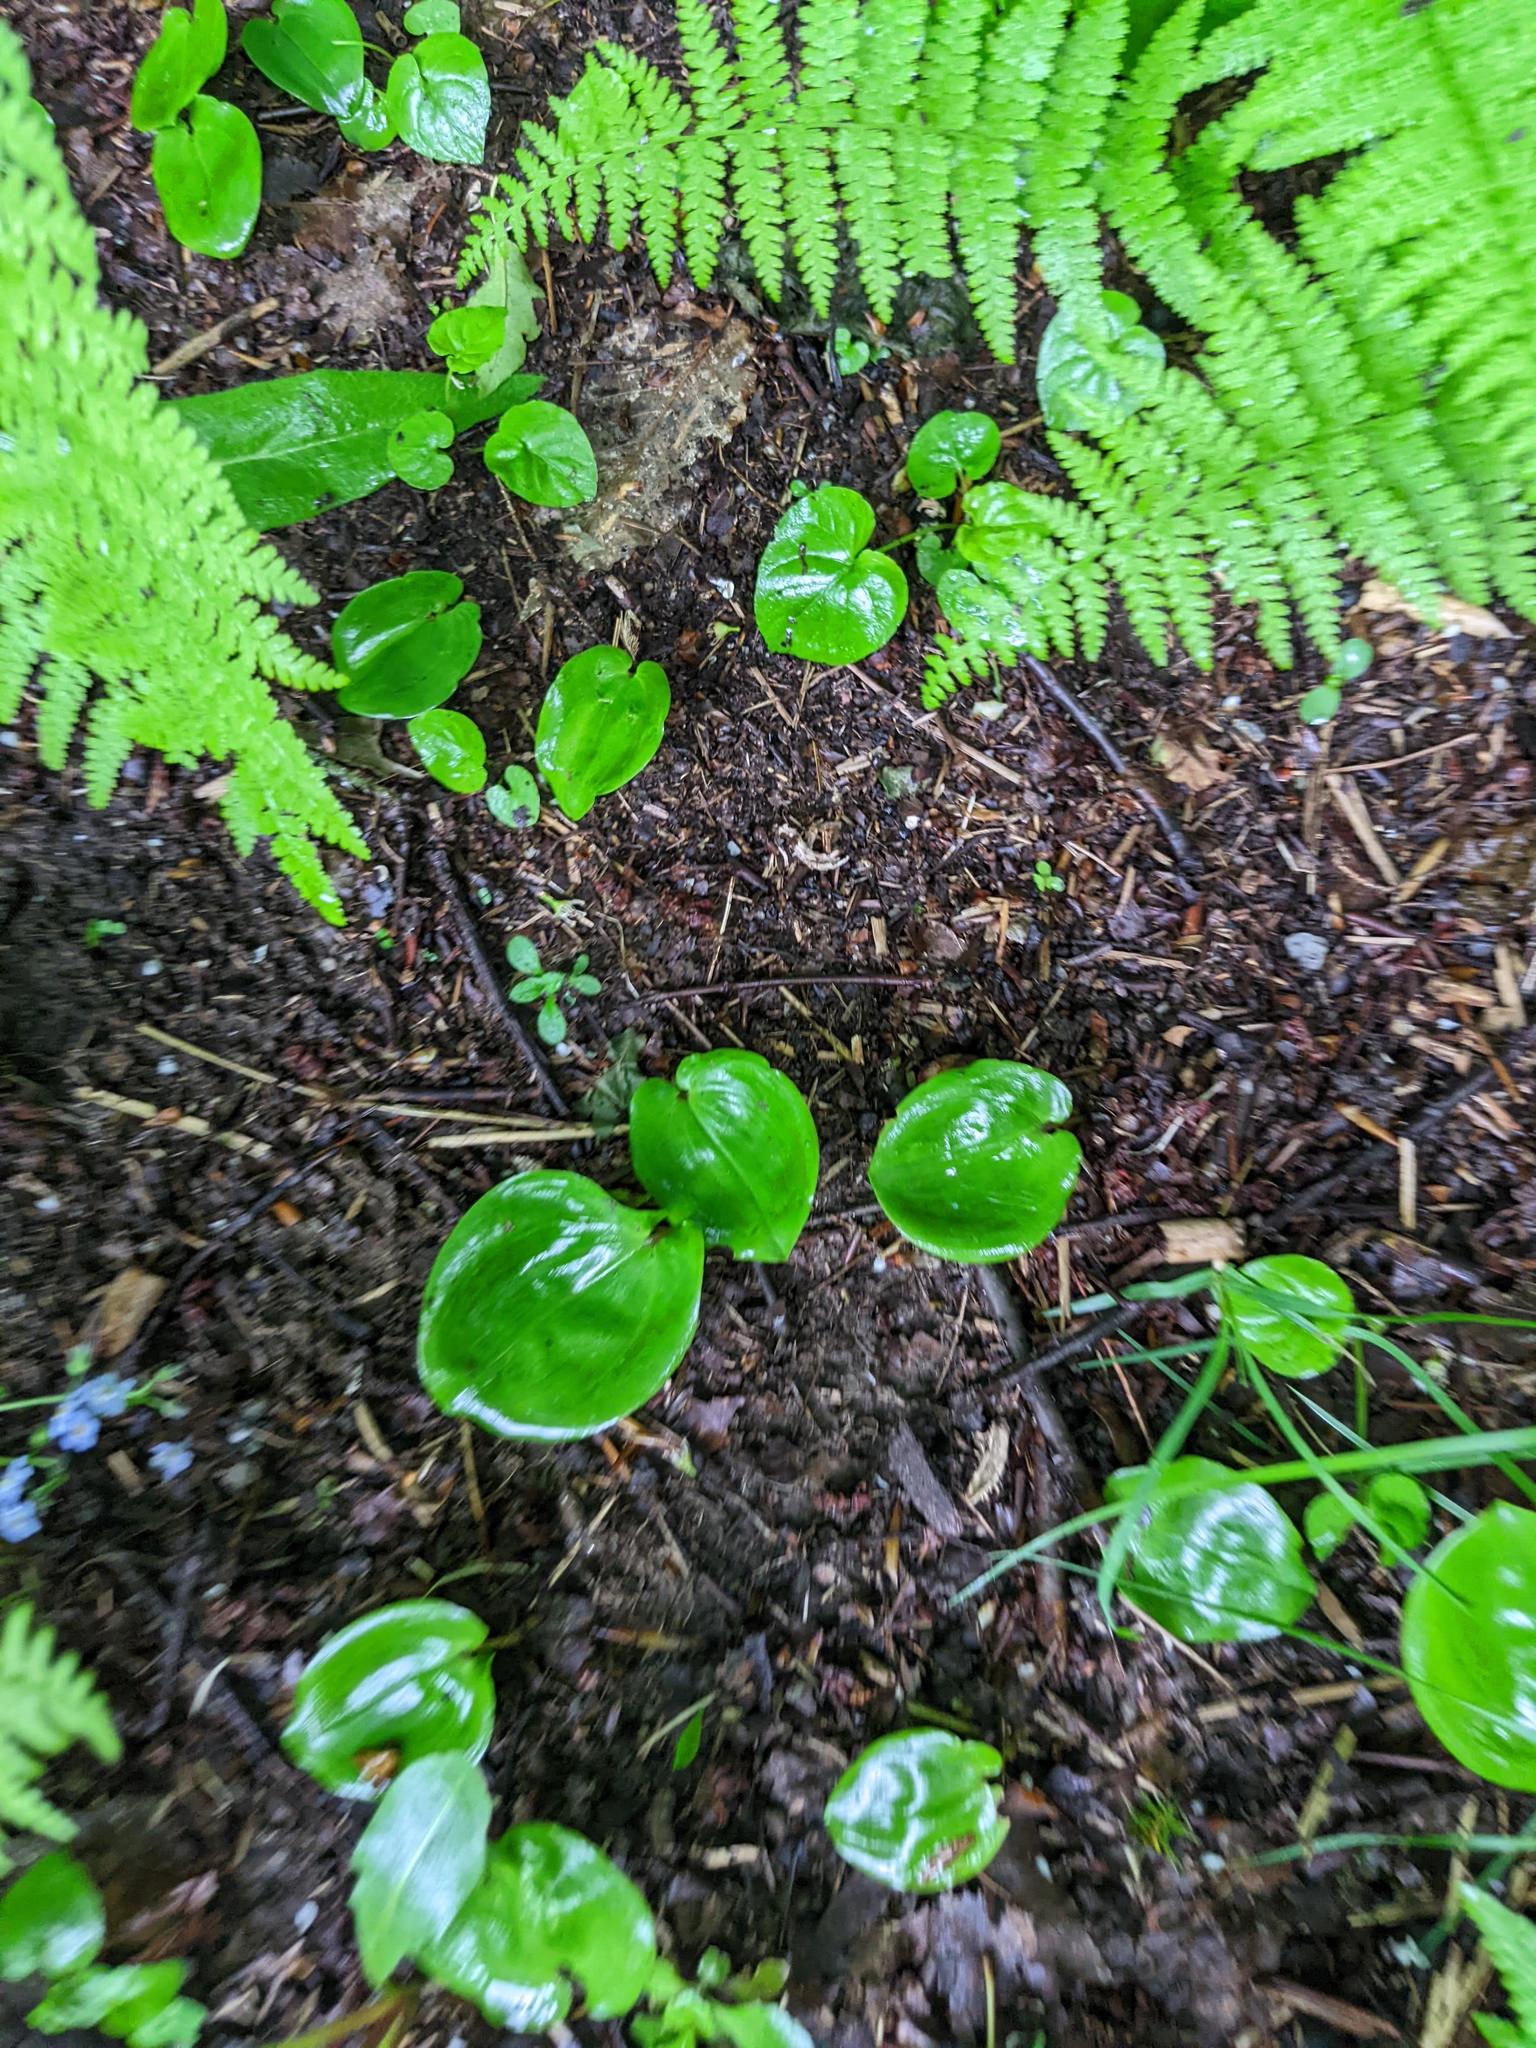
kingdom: Plantae
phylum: Tracheophyta
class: Liliopsida
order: Asparagales
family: Asparagaceae
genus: Maianthemum
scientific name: Maianthemum canadense
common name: False lily-of-the-valley
